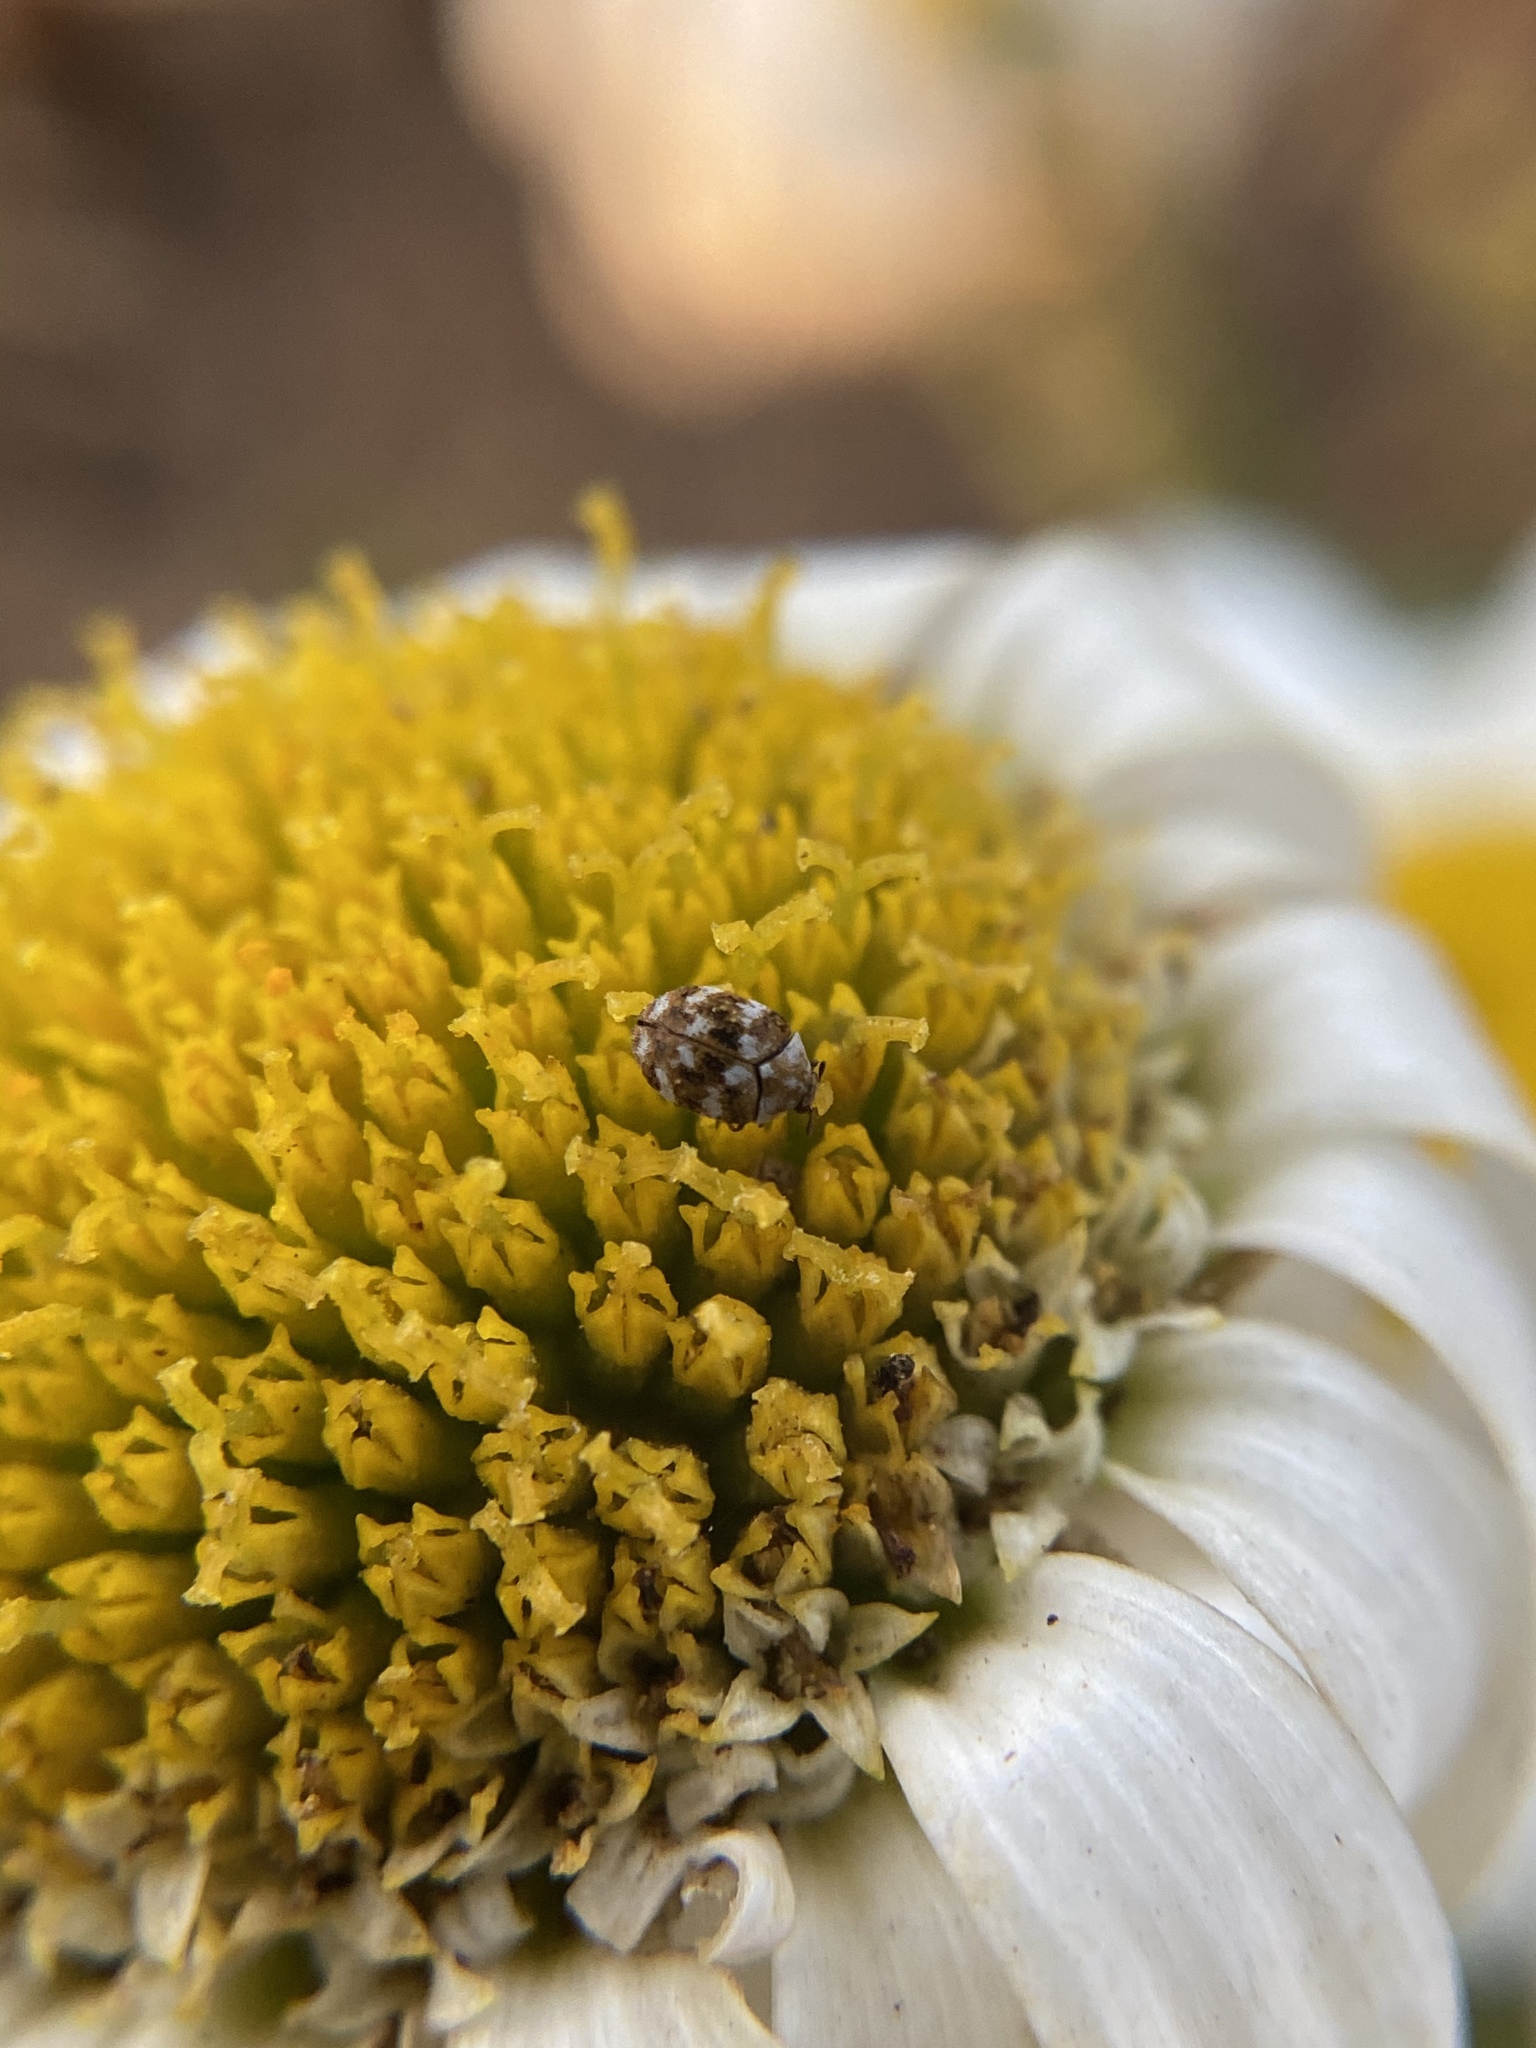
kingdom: Animalia
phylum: Arthropoda
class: Insecta
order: Coleoptera
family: Dermestidae
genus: Anthrenus
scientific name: Anthrenus verbasci
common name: Varied carpet beetle
